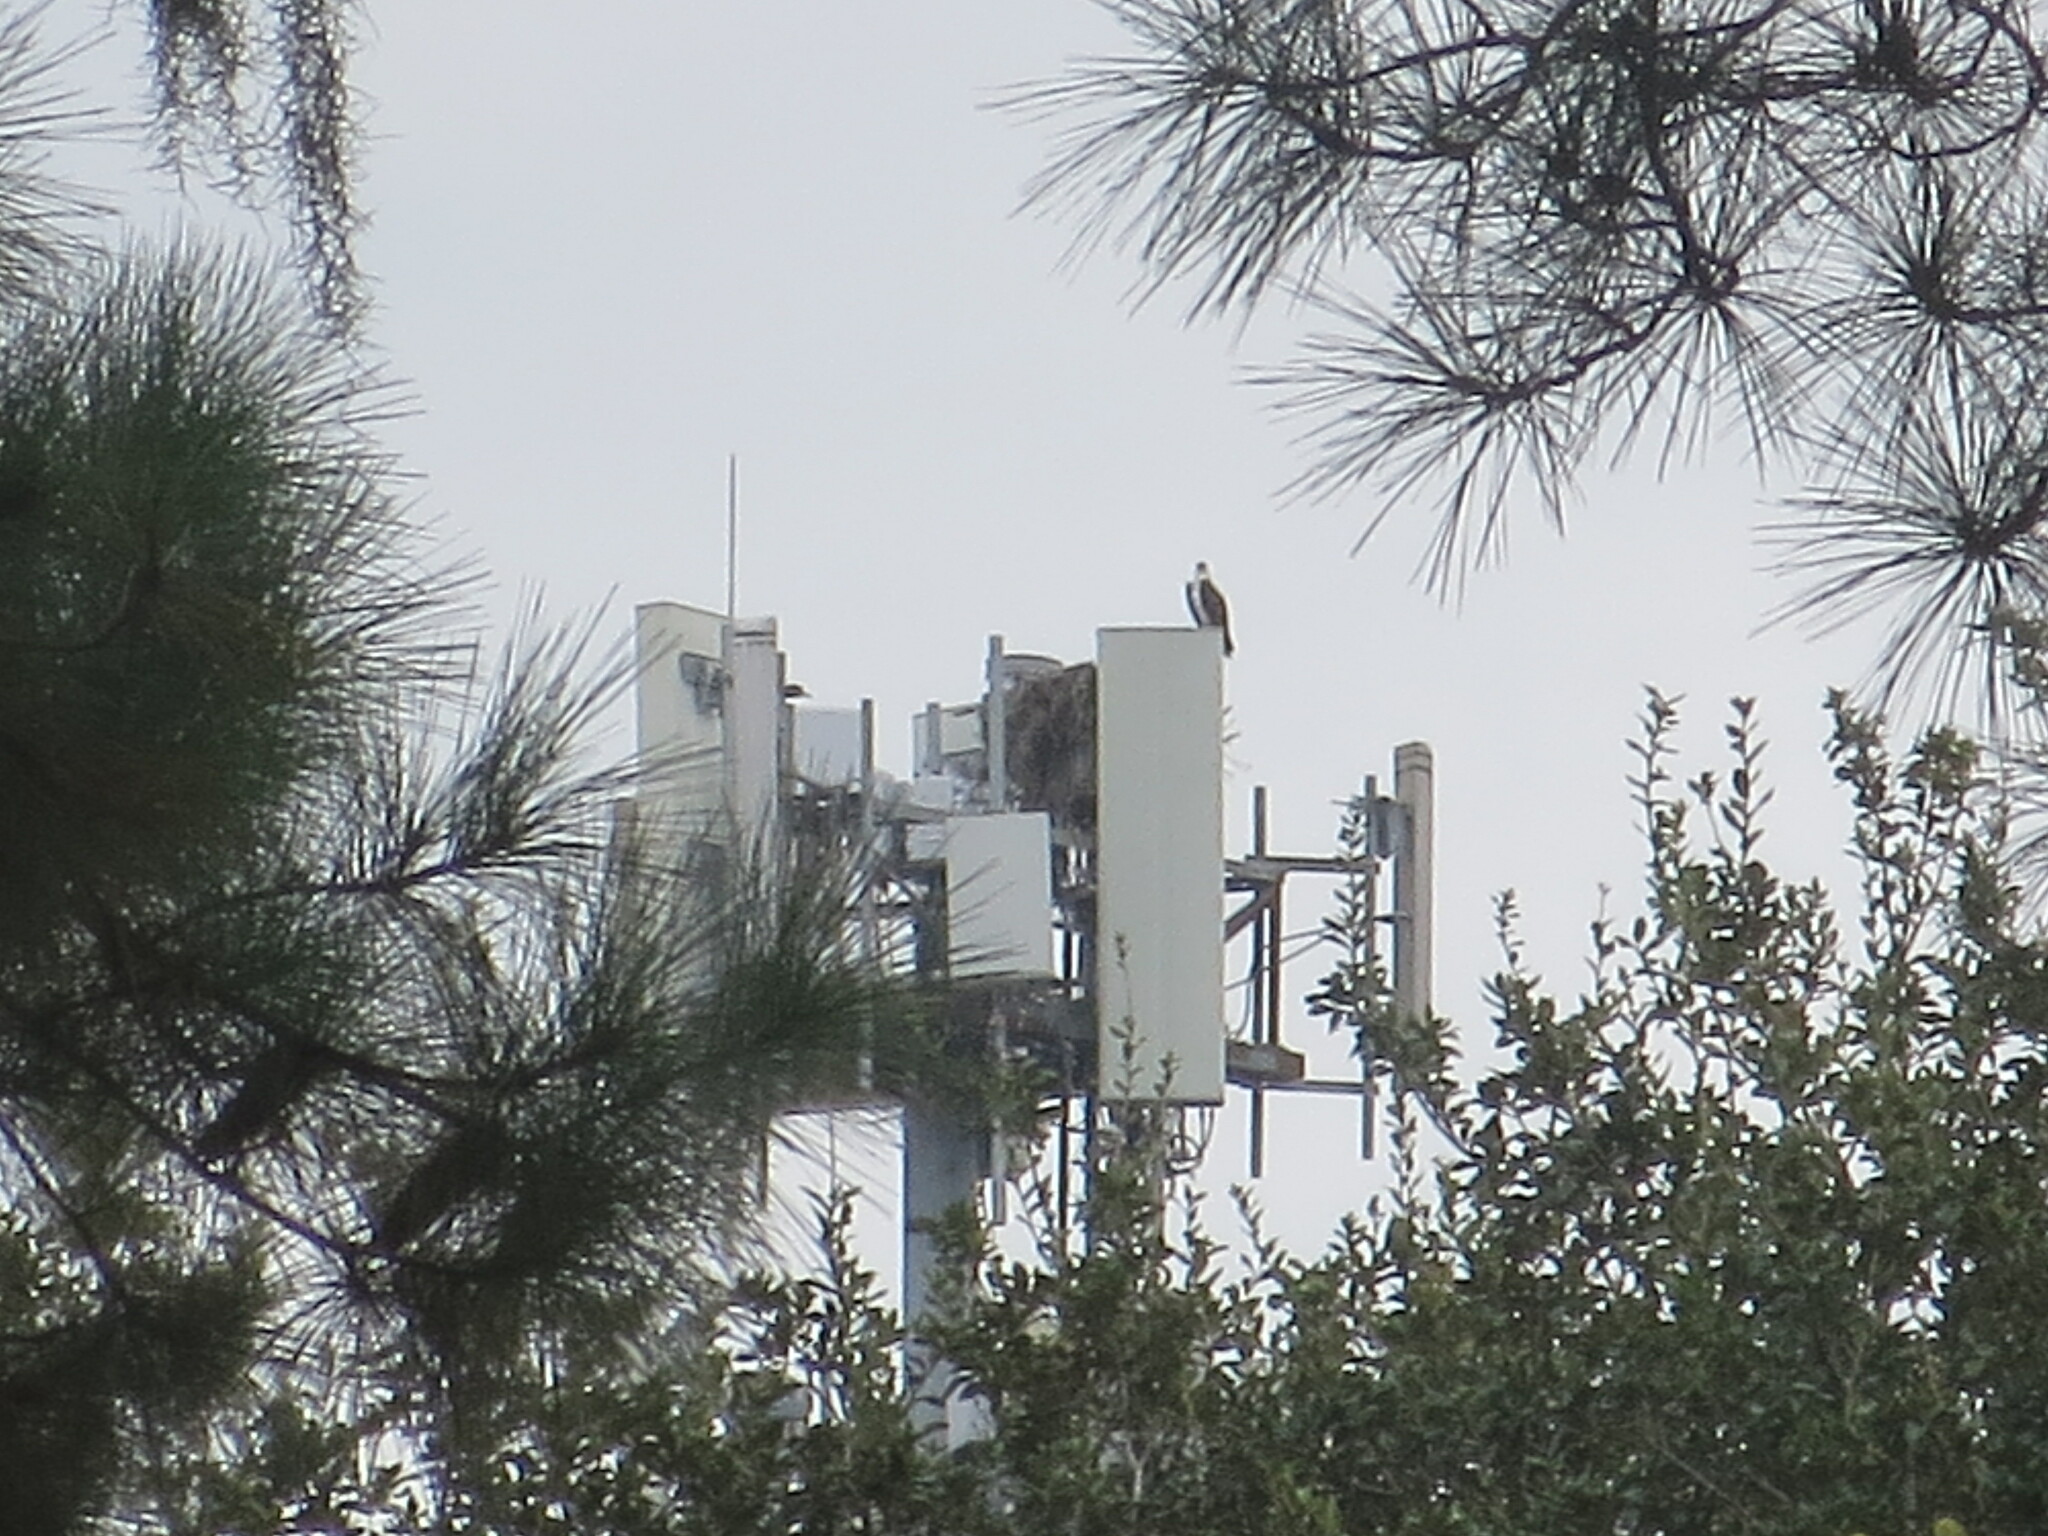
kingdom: Animalia
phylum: Chordata
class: Aves
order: Accipitriformes
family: Pandionidae
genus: Pandion
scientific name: Pandion haliaetus
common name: Osprey
